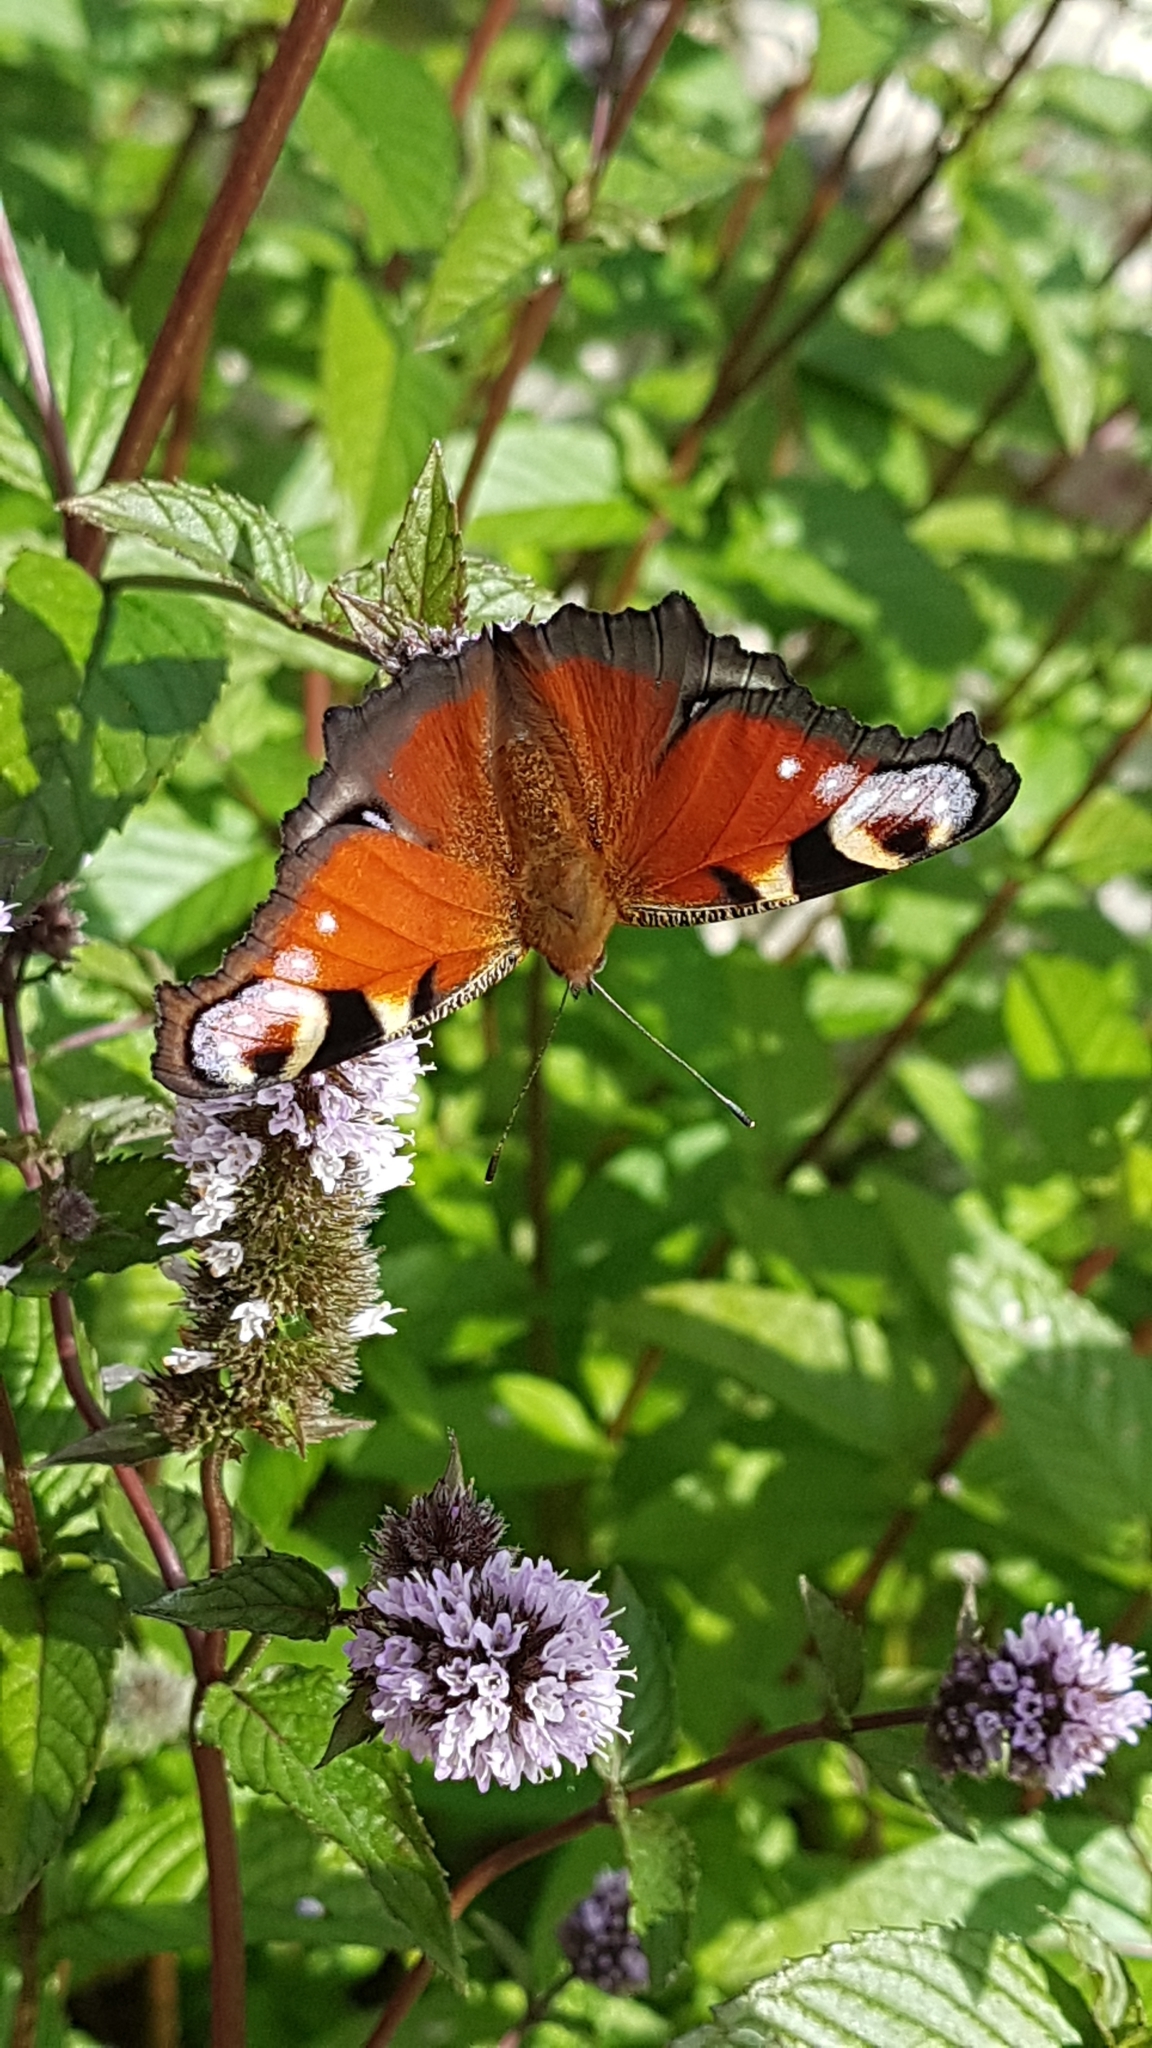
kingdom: Animalia
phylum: Arthropoda
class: Insecta
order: Lepidoptera
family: Nymphalidae
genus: Aglais
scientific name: Aglais io
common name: Peacock
